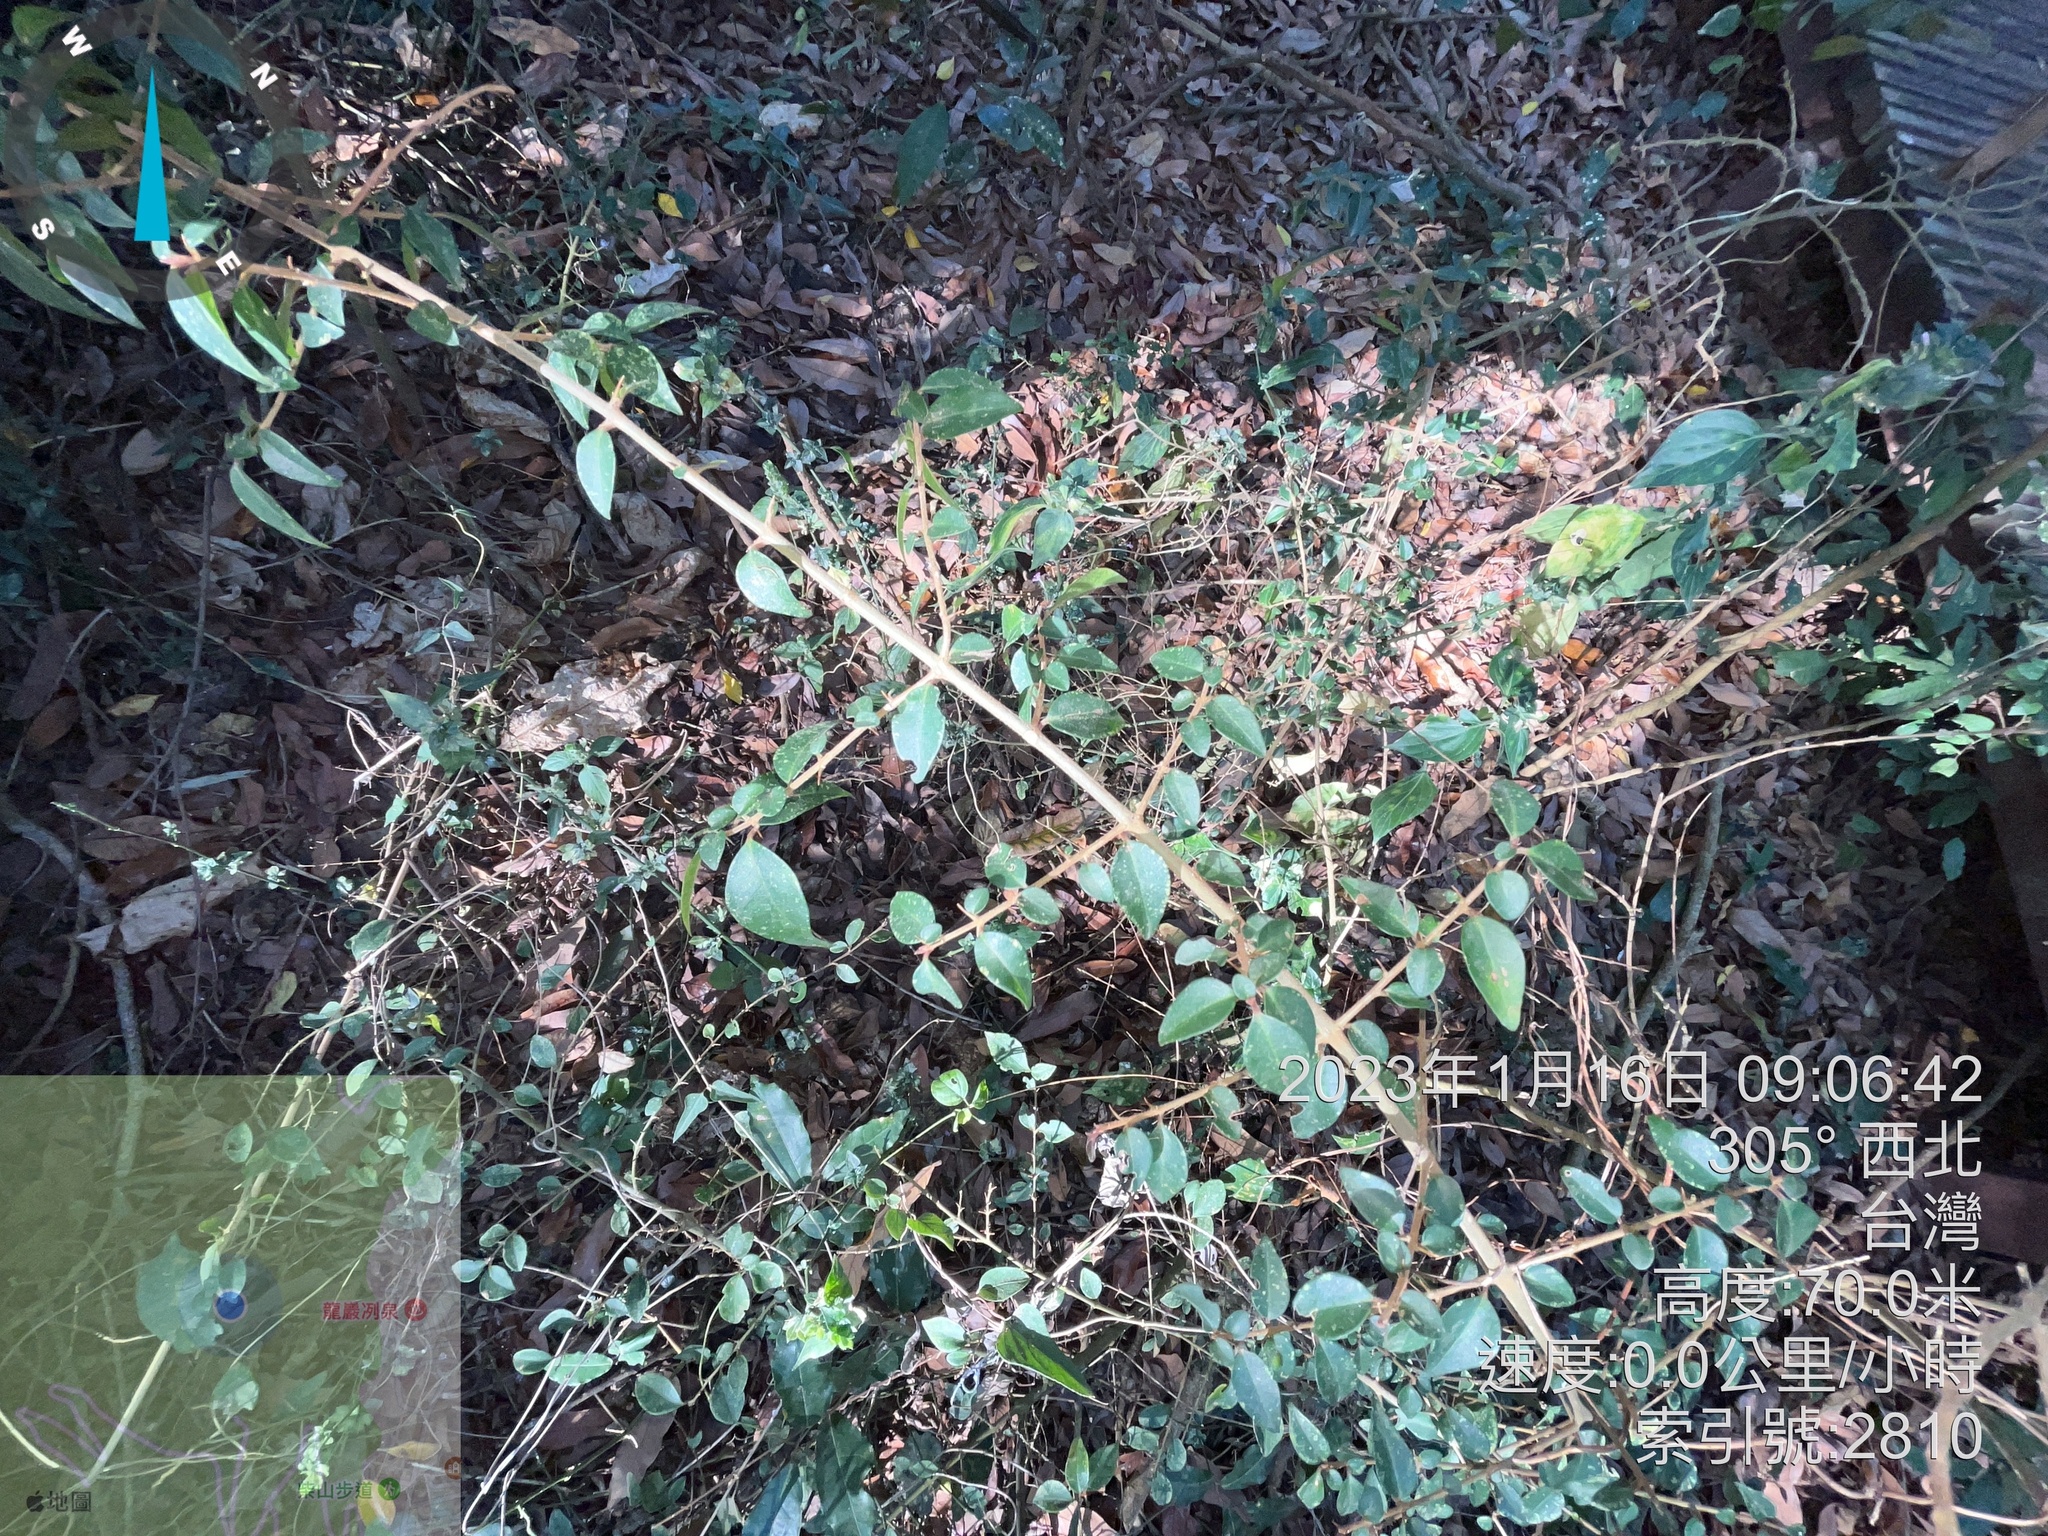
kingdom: Plantae
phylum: Tracheophyta
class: Magnoliopsida
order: Caryophyllales
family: Nyctaginaceae
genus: Pisonia
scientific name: Pisonia aculeata
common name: Cockspur vine
